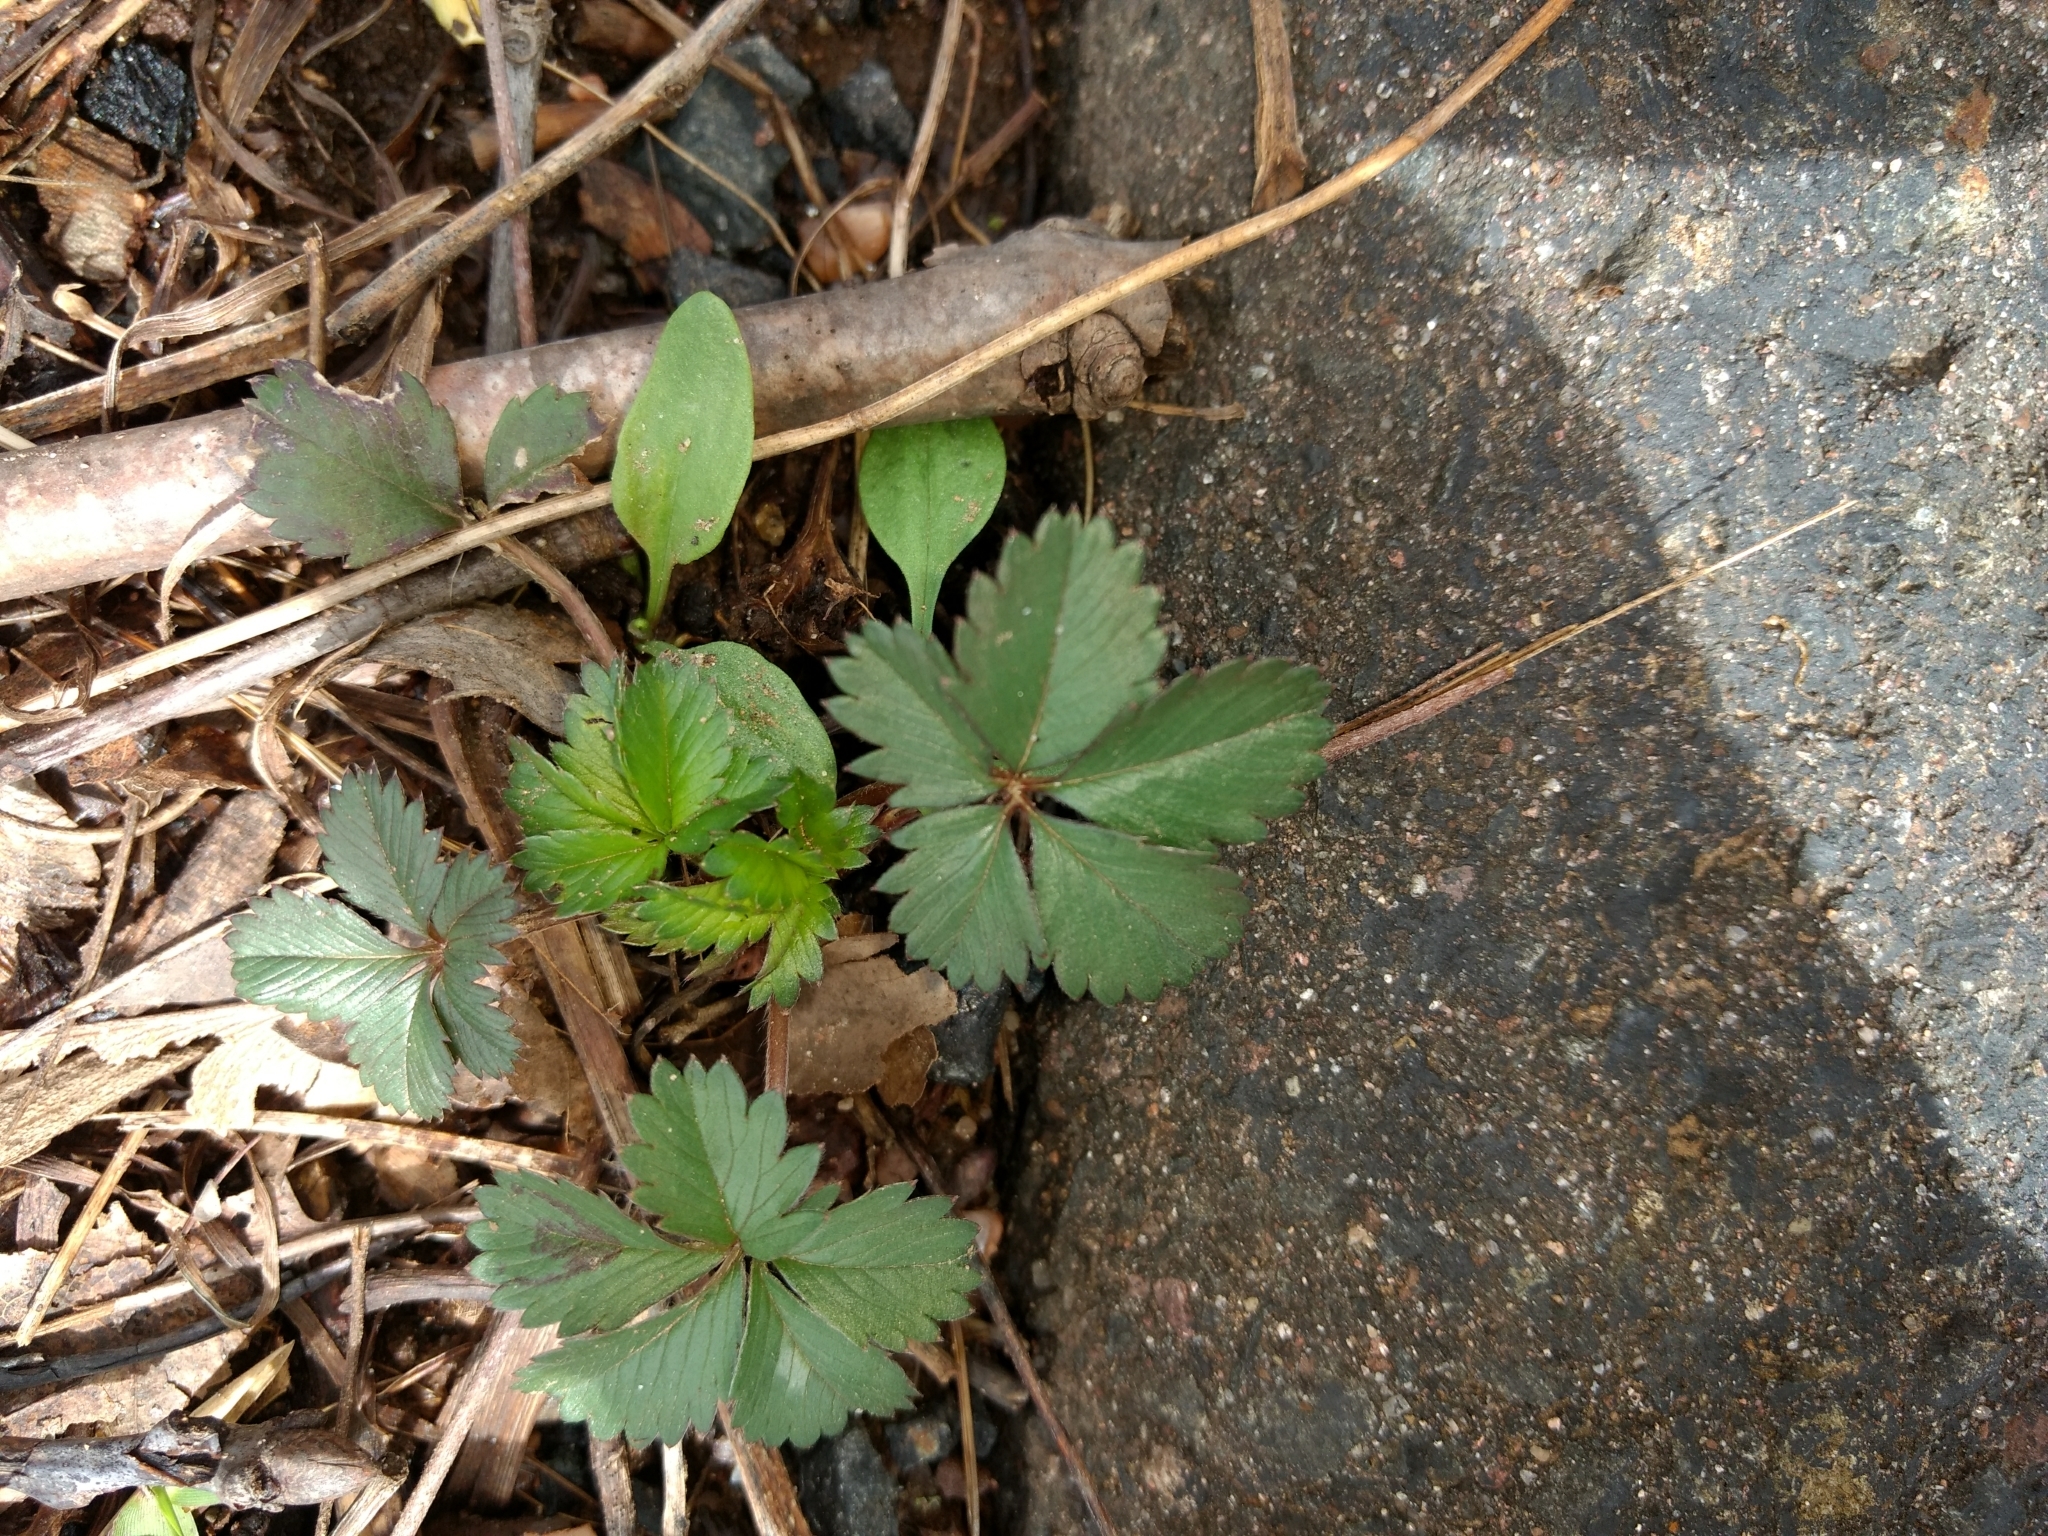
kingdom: Plantae
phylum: Tracheophyta
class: Magnoliopsida
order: Rosales
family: Rosaceae
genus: Potentilla
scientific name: Potentilla canadensis
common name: Canada cinquefoil
